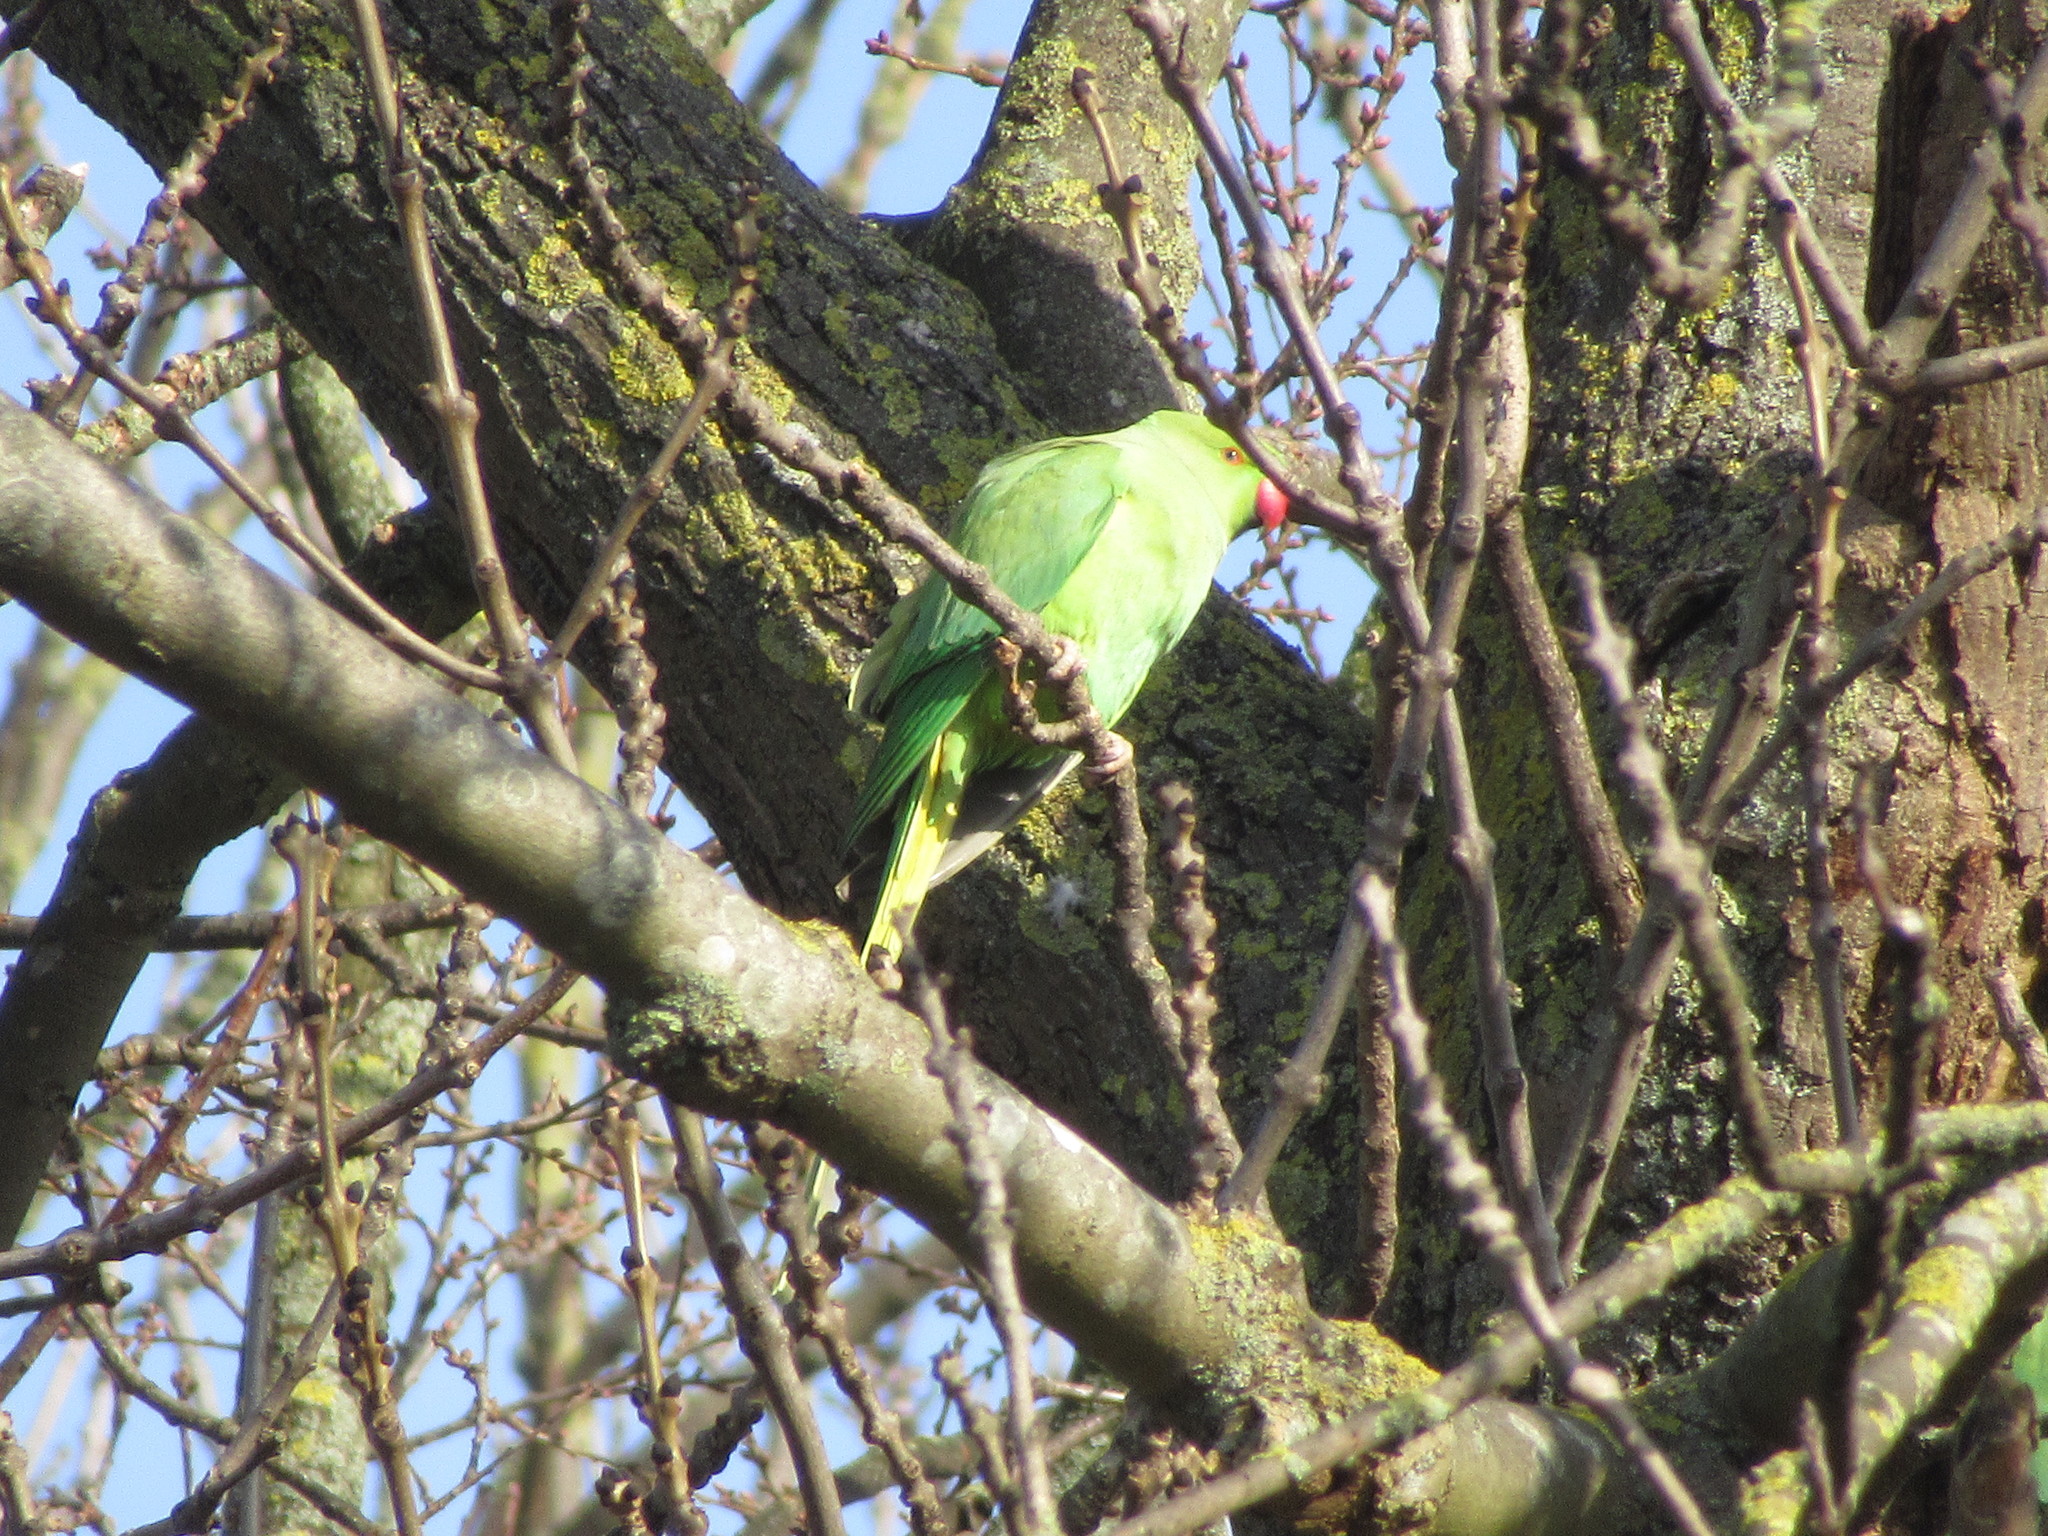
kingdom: Animalia
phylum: Chordata
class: Aves
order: Psittaciformes
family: Psittacidae
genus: Psittacula
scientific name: Psittacula krameri
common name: Rose-ringed parakeet
